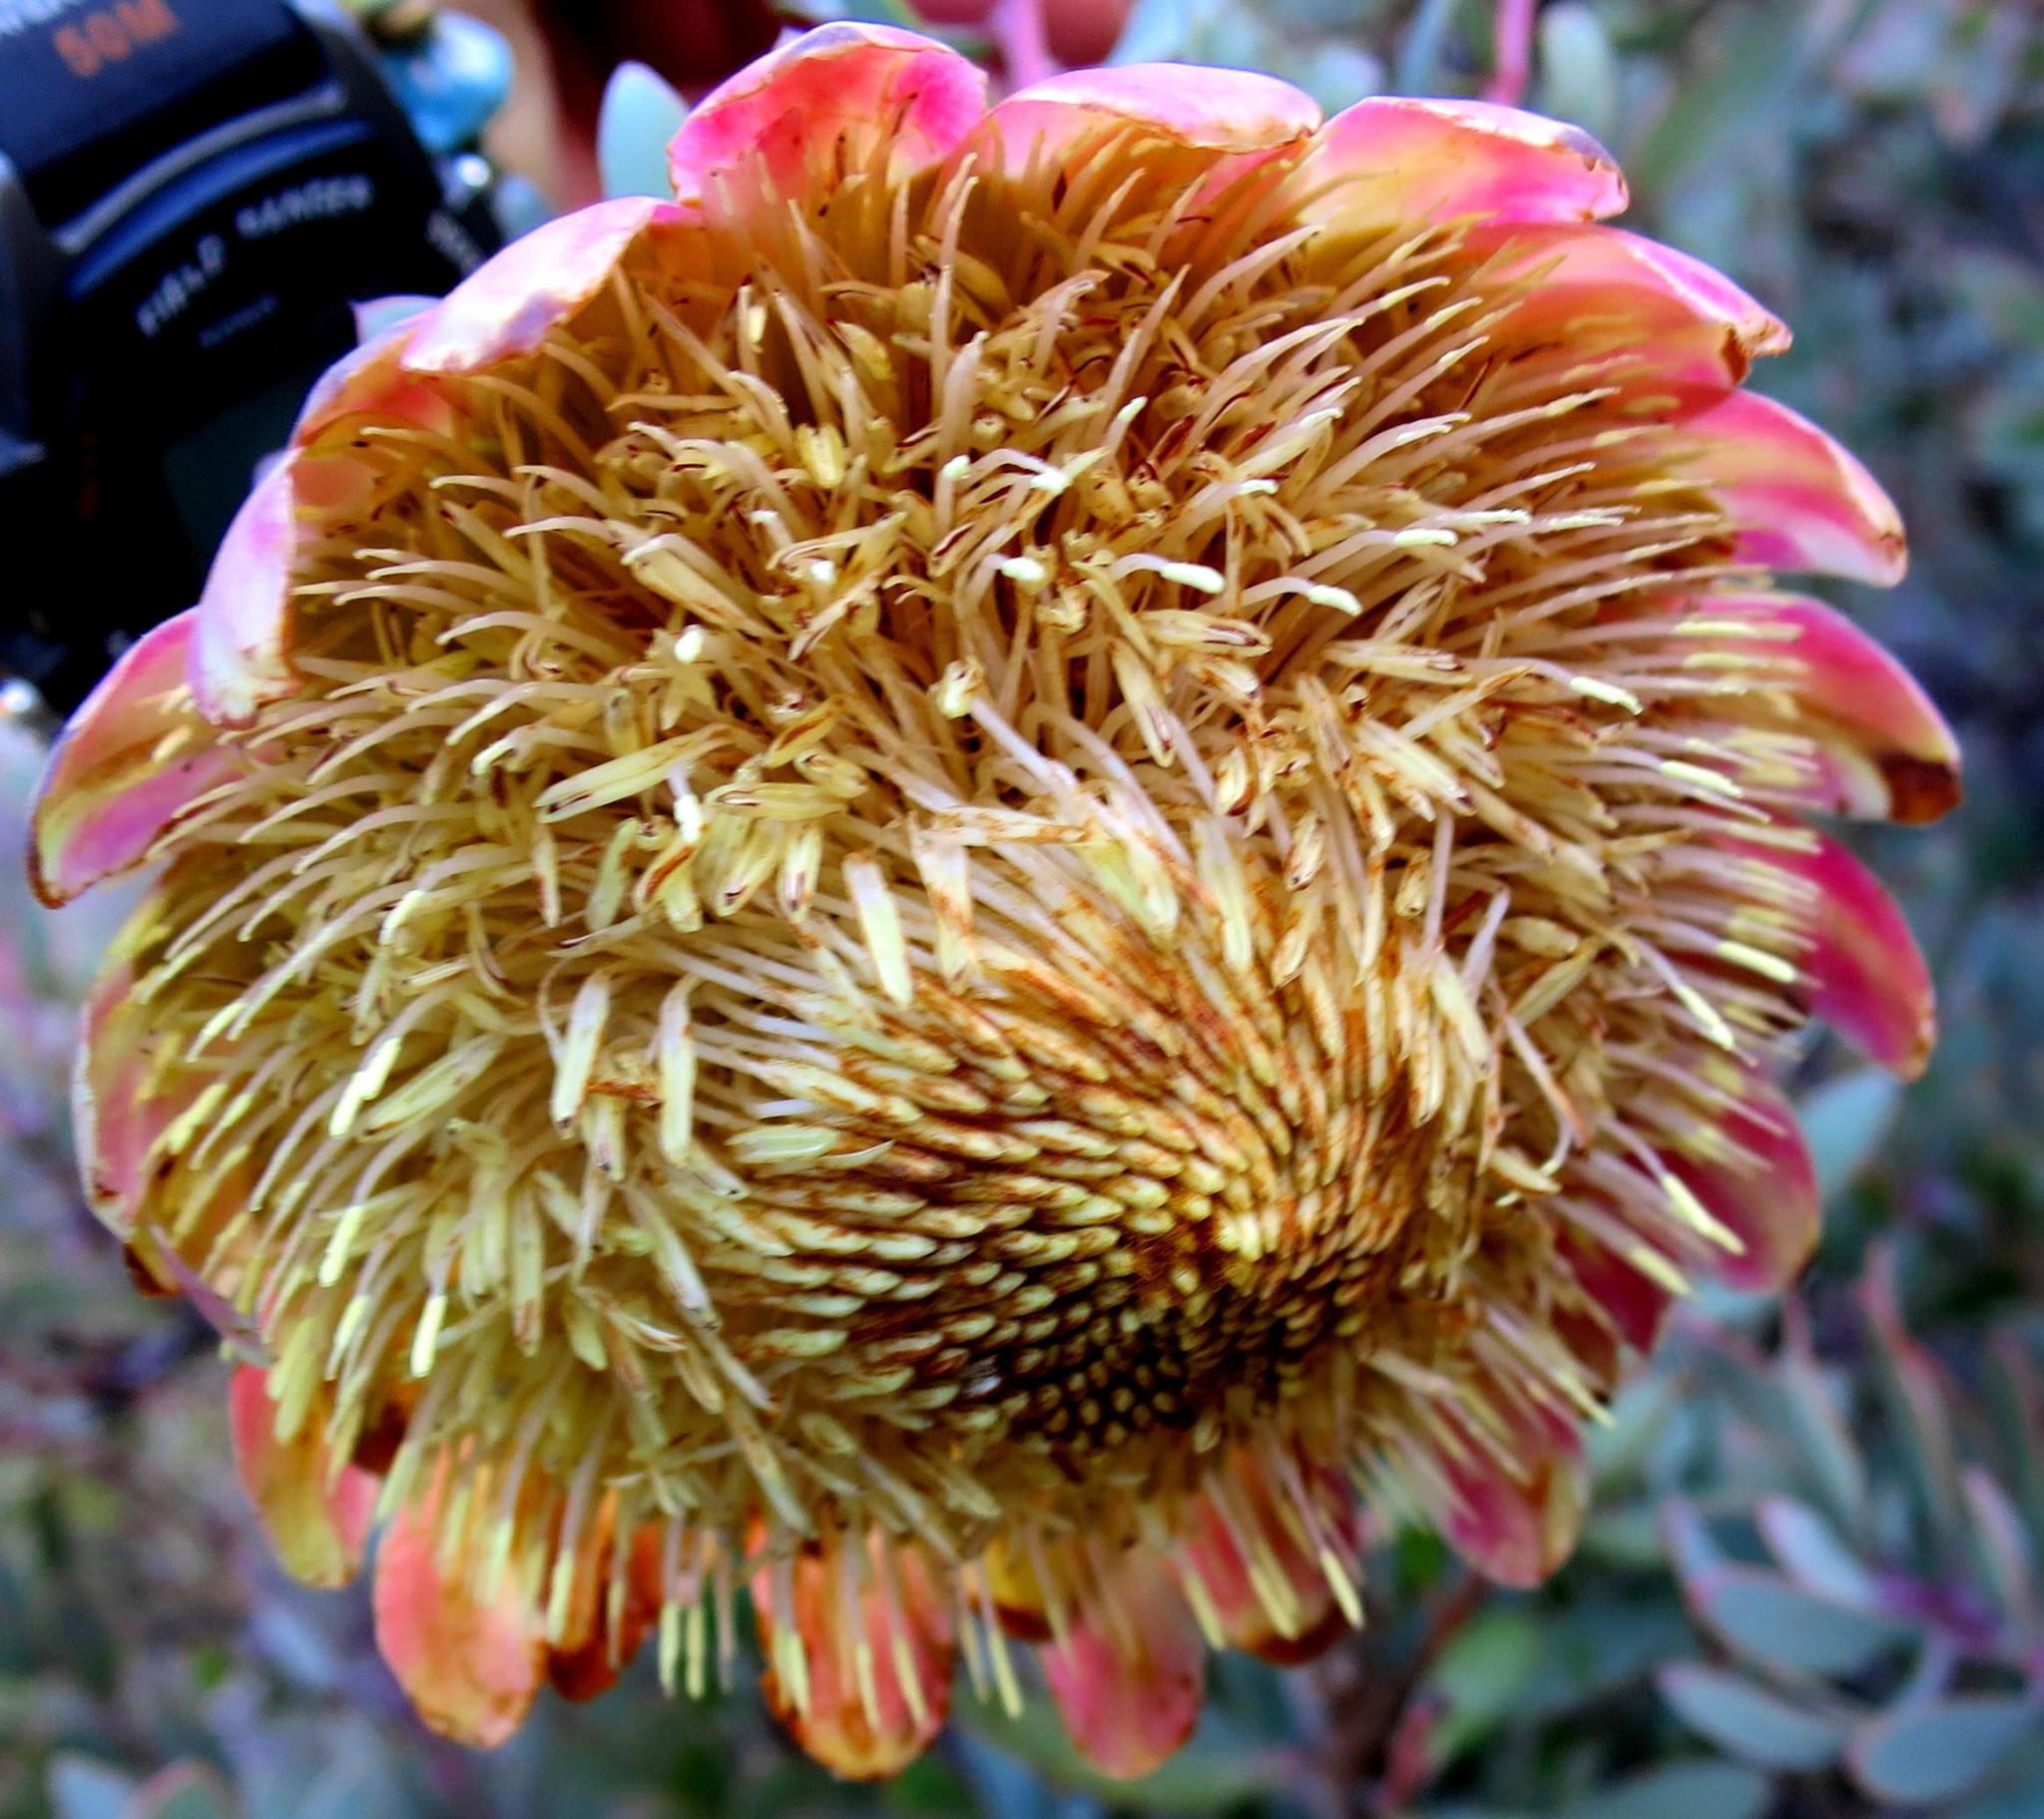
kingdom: Plantae
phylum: Tracheophyta
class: Magnoliopsida
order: Proteales
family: Proteaceae
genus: Protea
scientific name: Protea sulphurea
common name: Sulphur sugarbush
